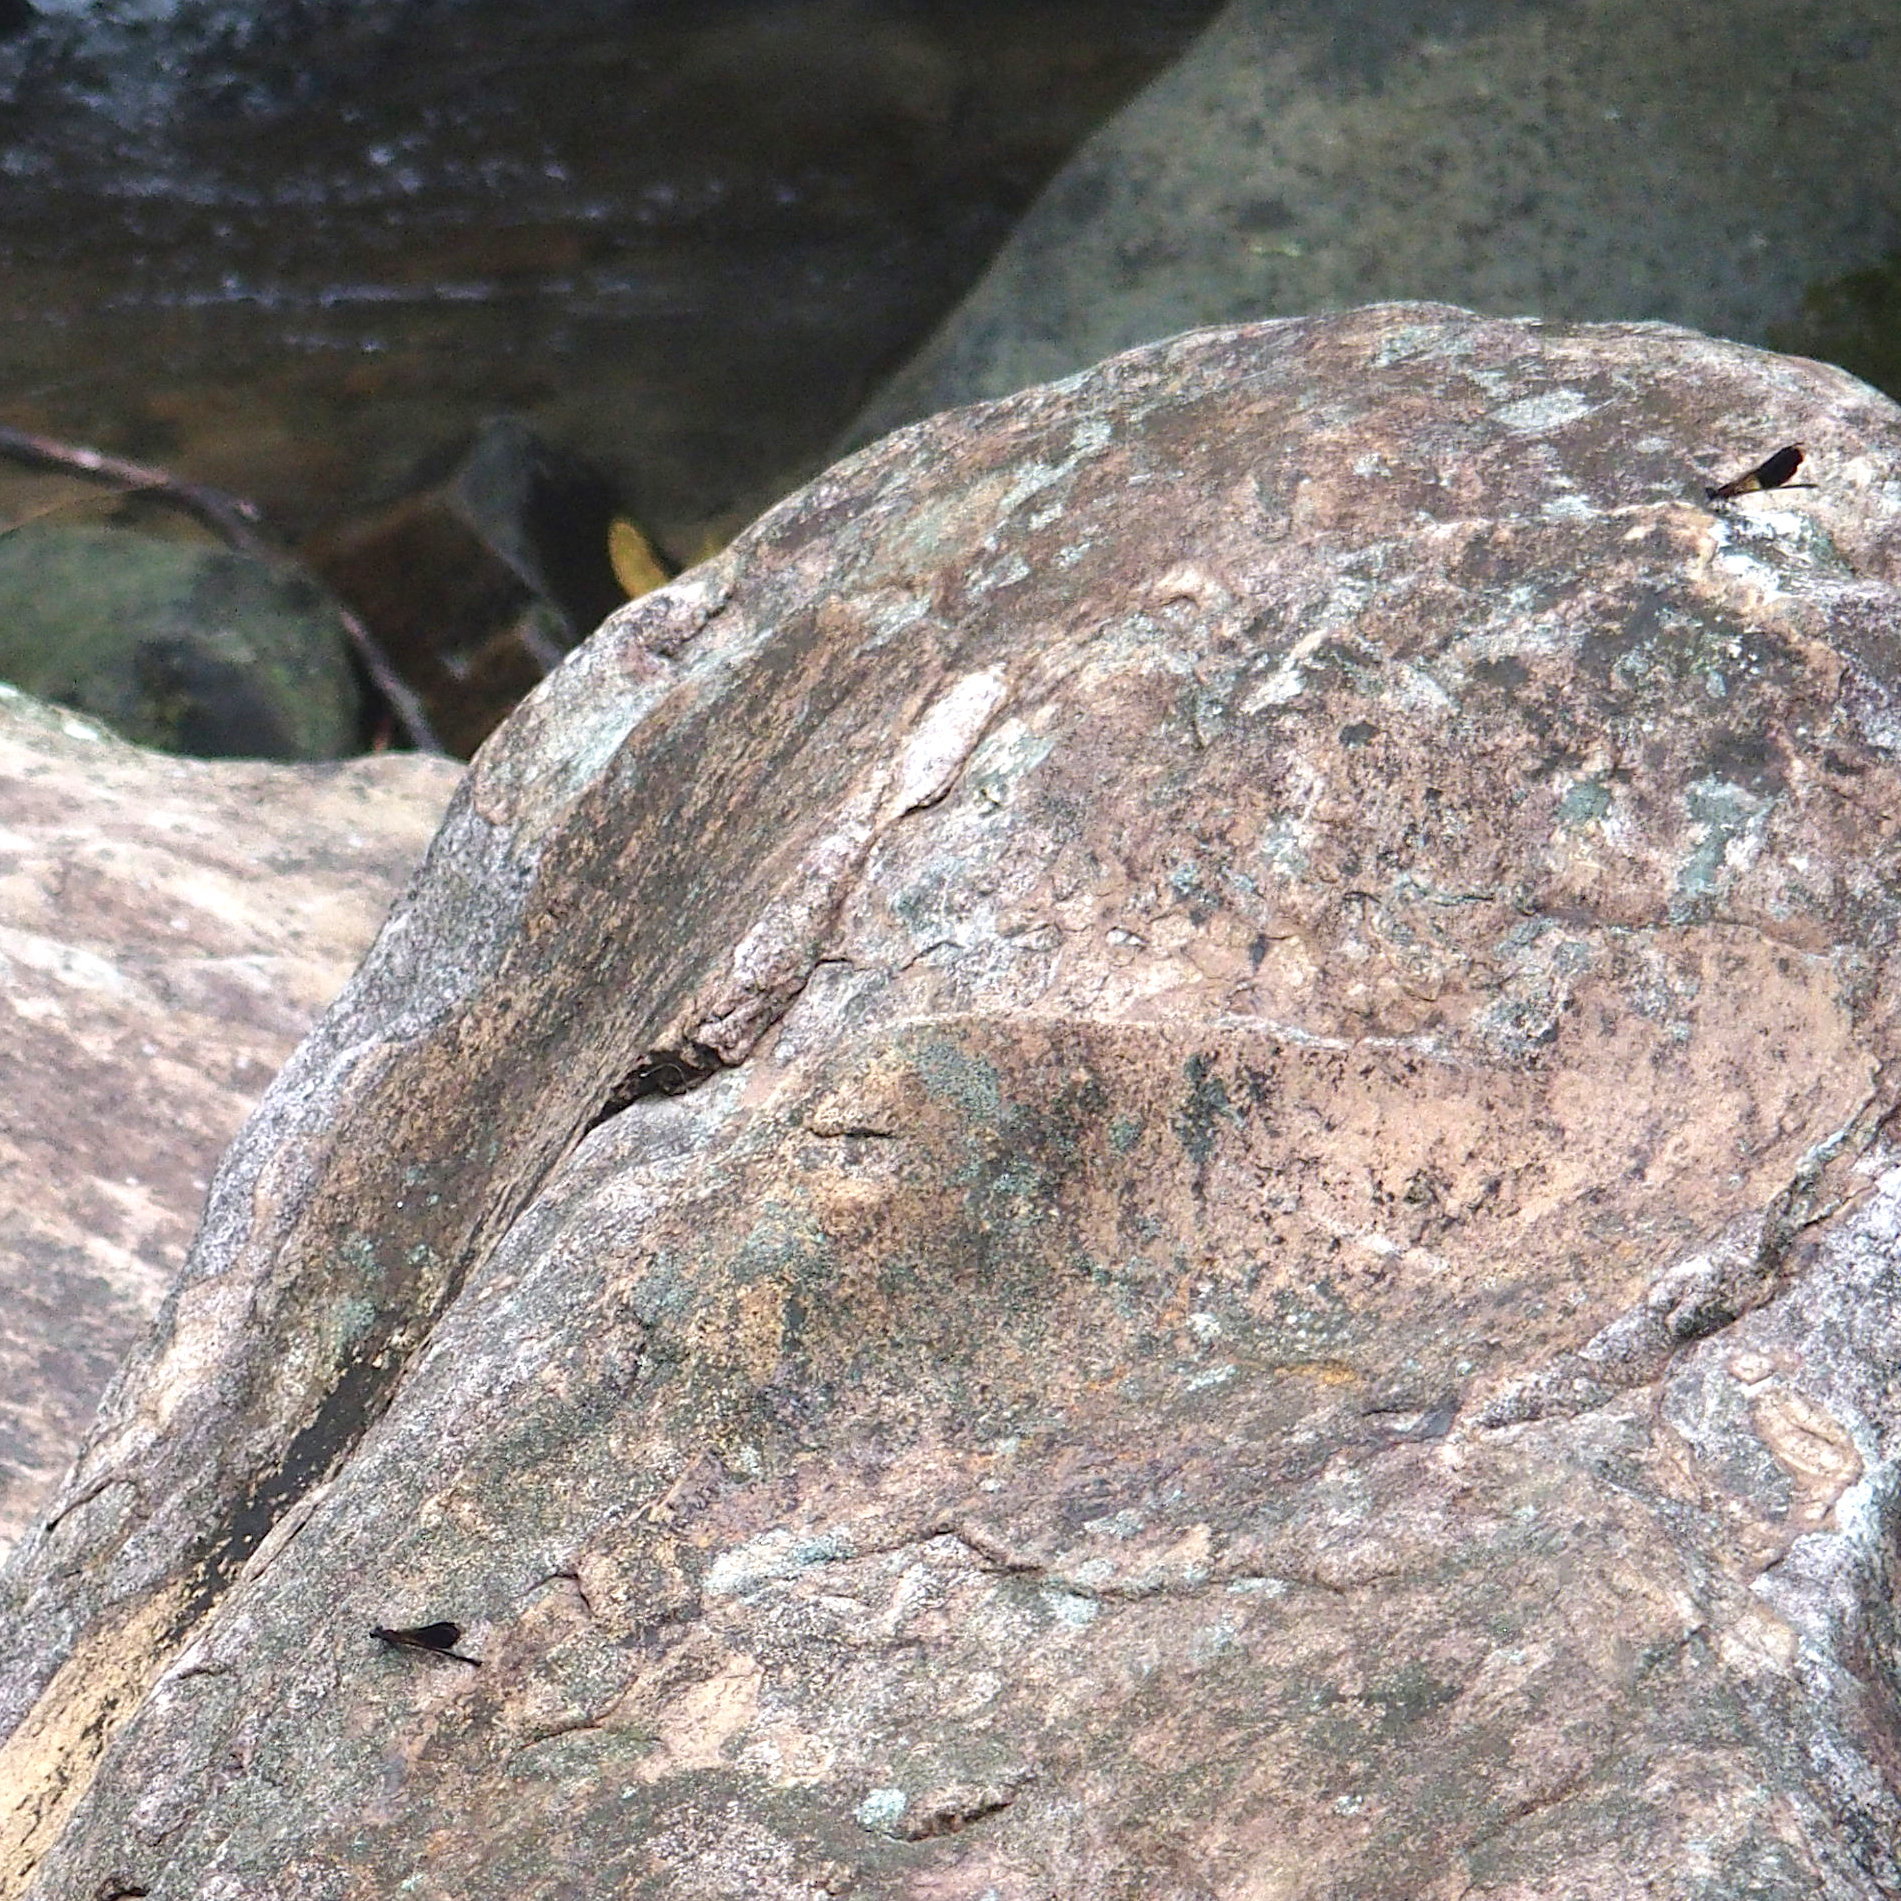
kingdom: Animalia
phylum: Arthropoda
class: Insecta
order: Odonata
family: Euphaeidae
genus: Euphaea
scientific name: Euphaea formosa
